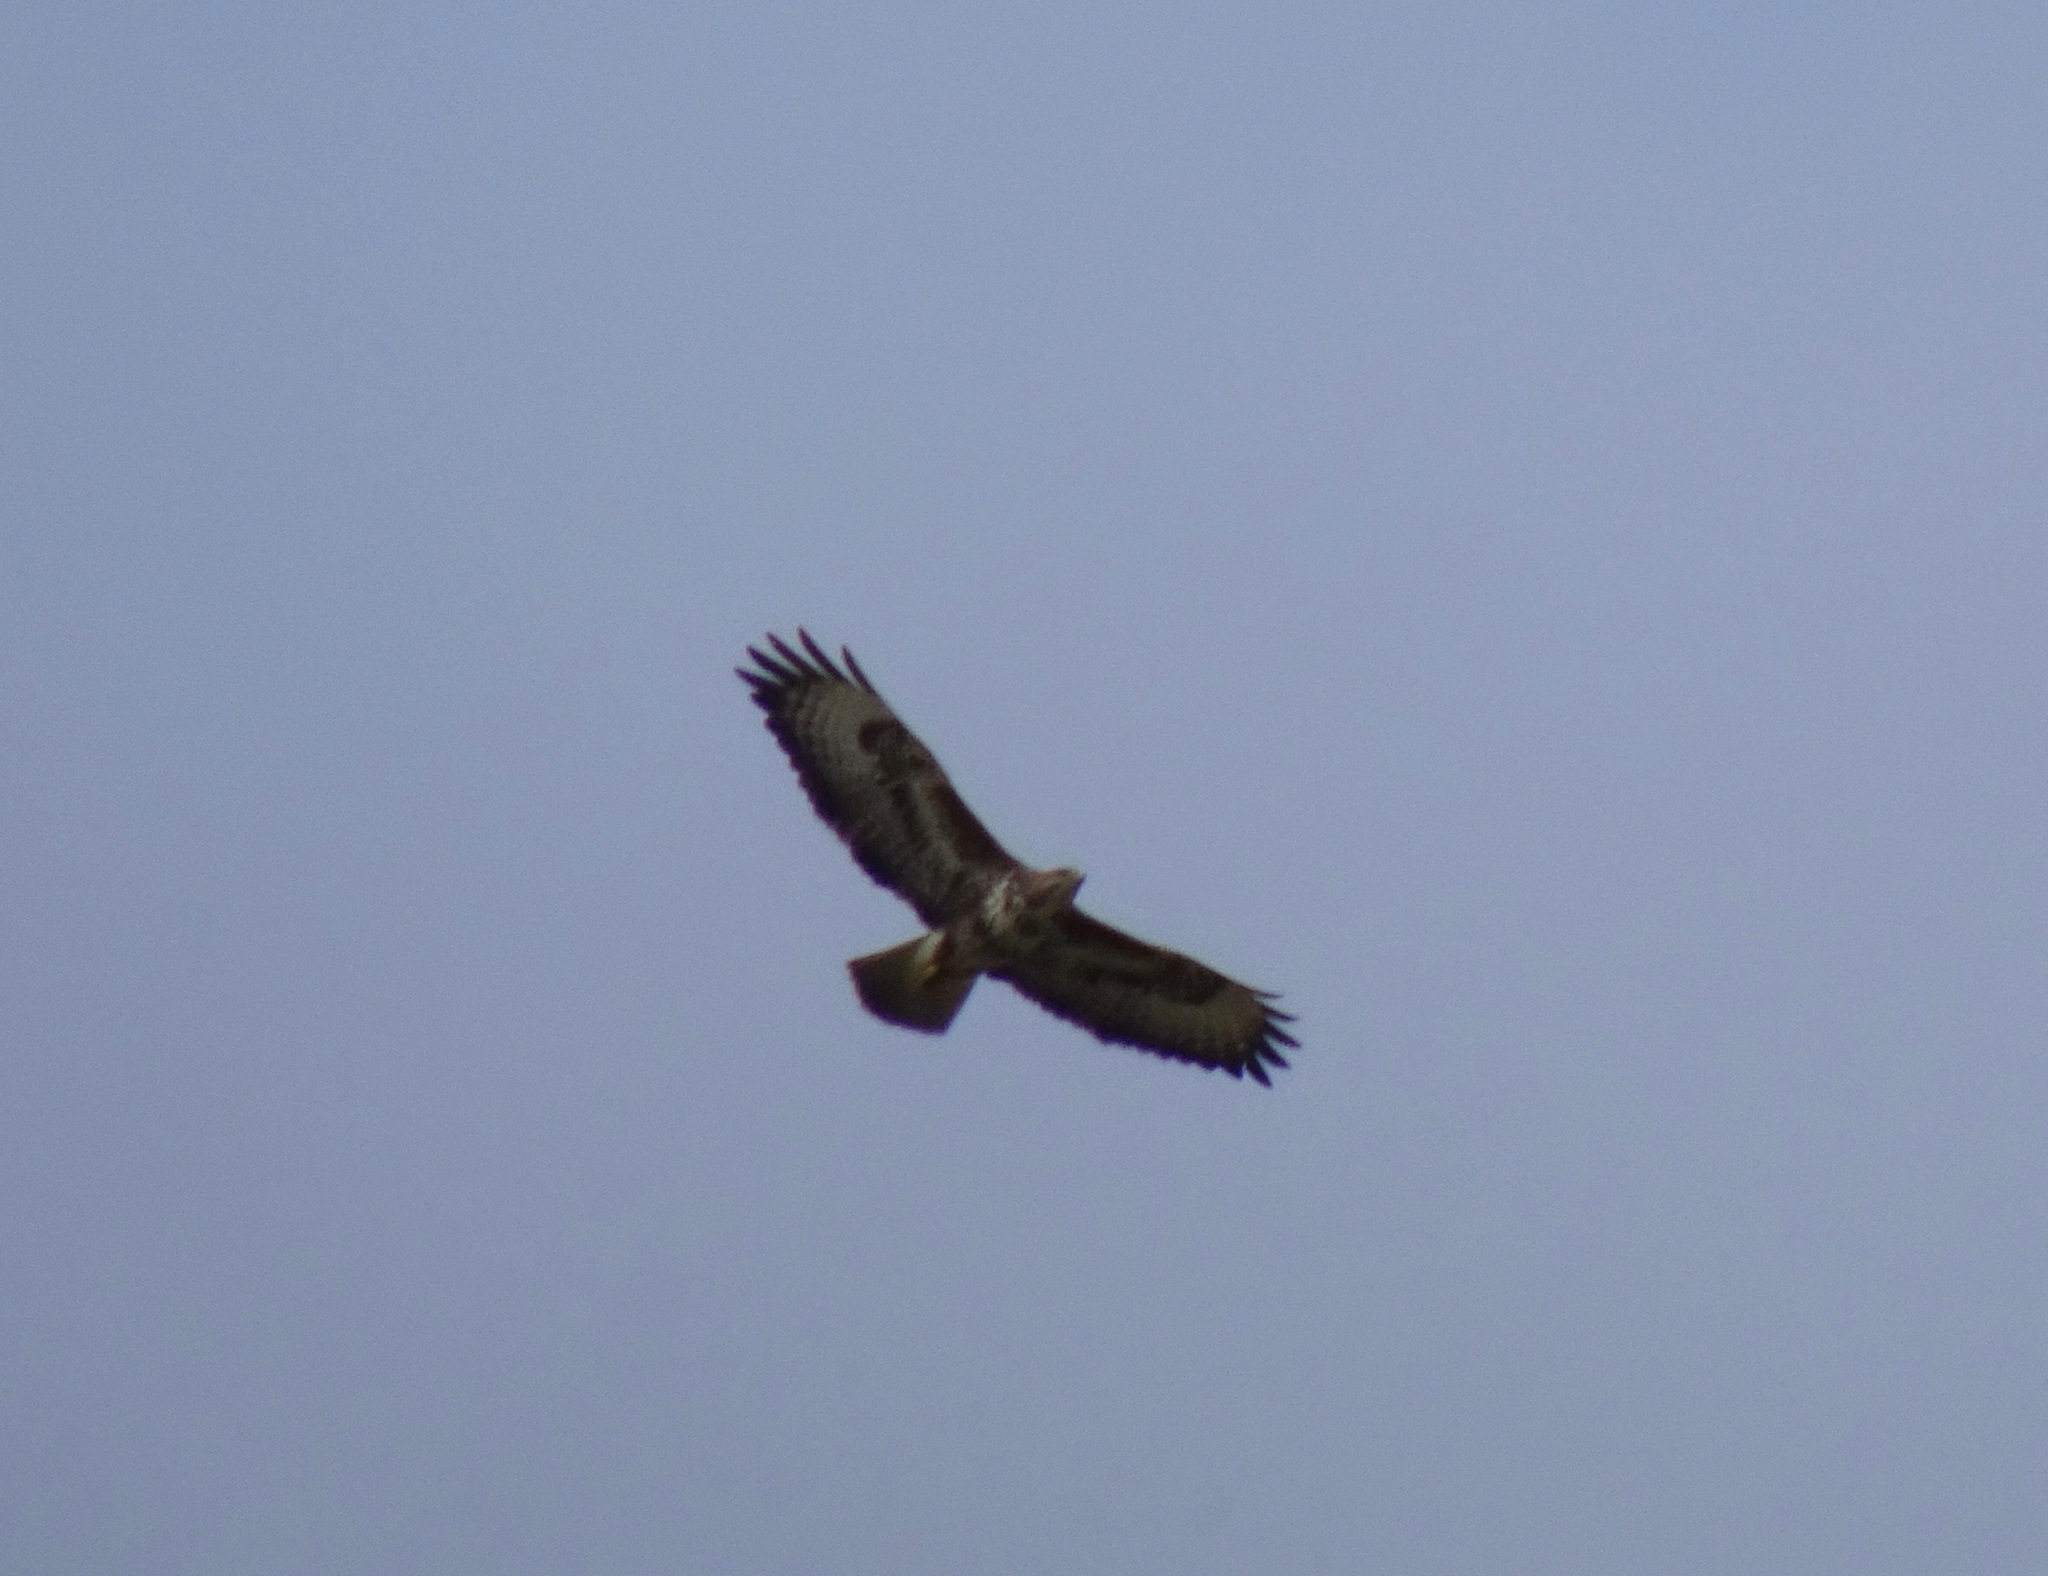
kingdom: Animalia
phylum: Chordata
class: Aves
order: Accipitriformes
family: Accipitridae
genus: Buteo
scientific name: Buteo buteo
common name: Common buzzard
